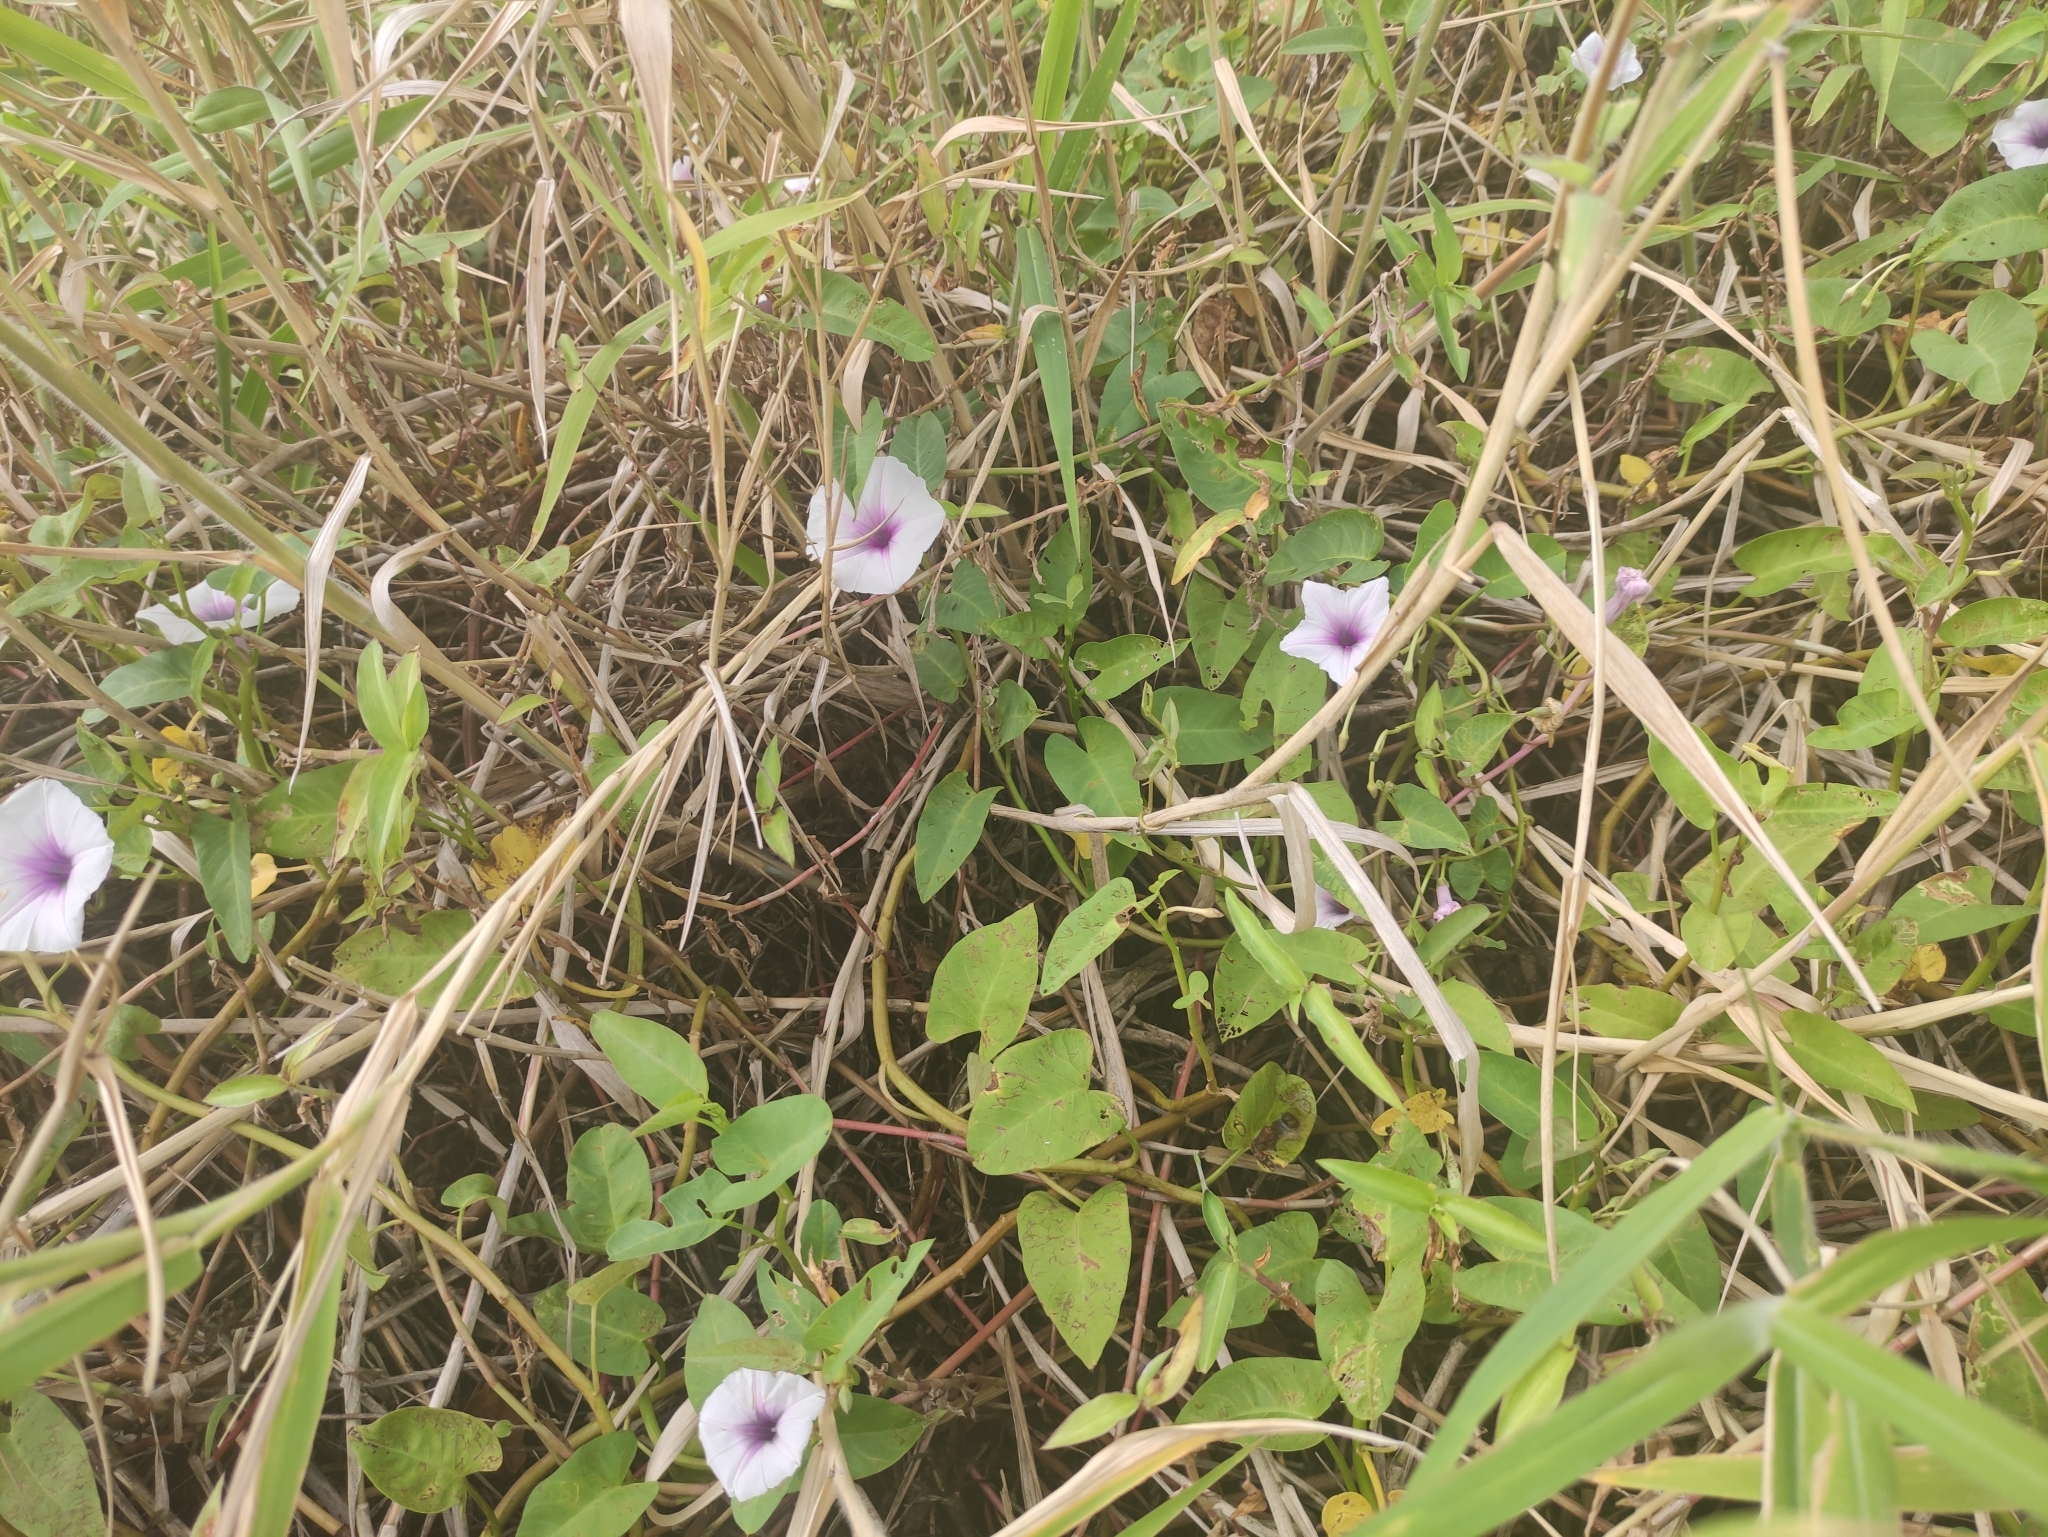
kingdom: Plantae
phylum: Tracheophyta
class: Magnoliopsida
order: Solanales
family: Convolvulaceae
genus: Ipomoea
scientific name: Ipomoea aquatica
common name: Swamp morning-glory
